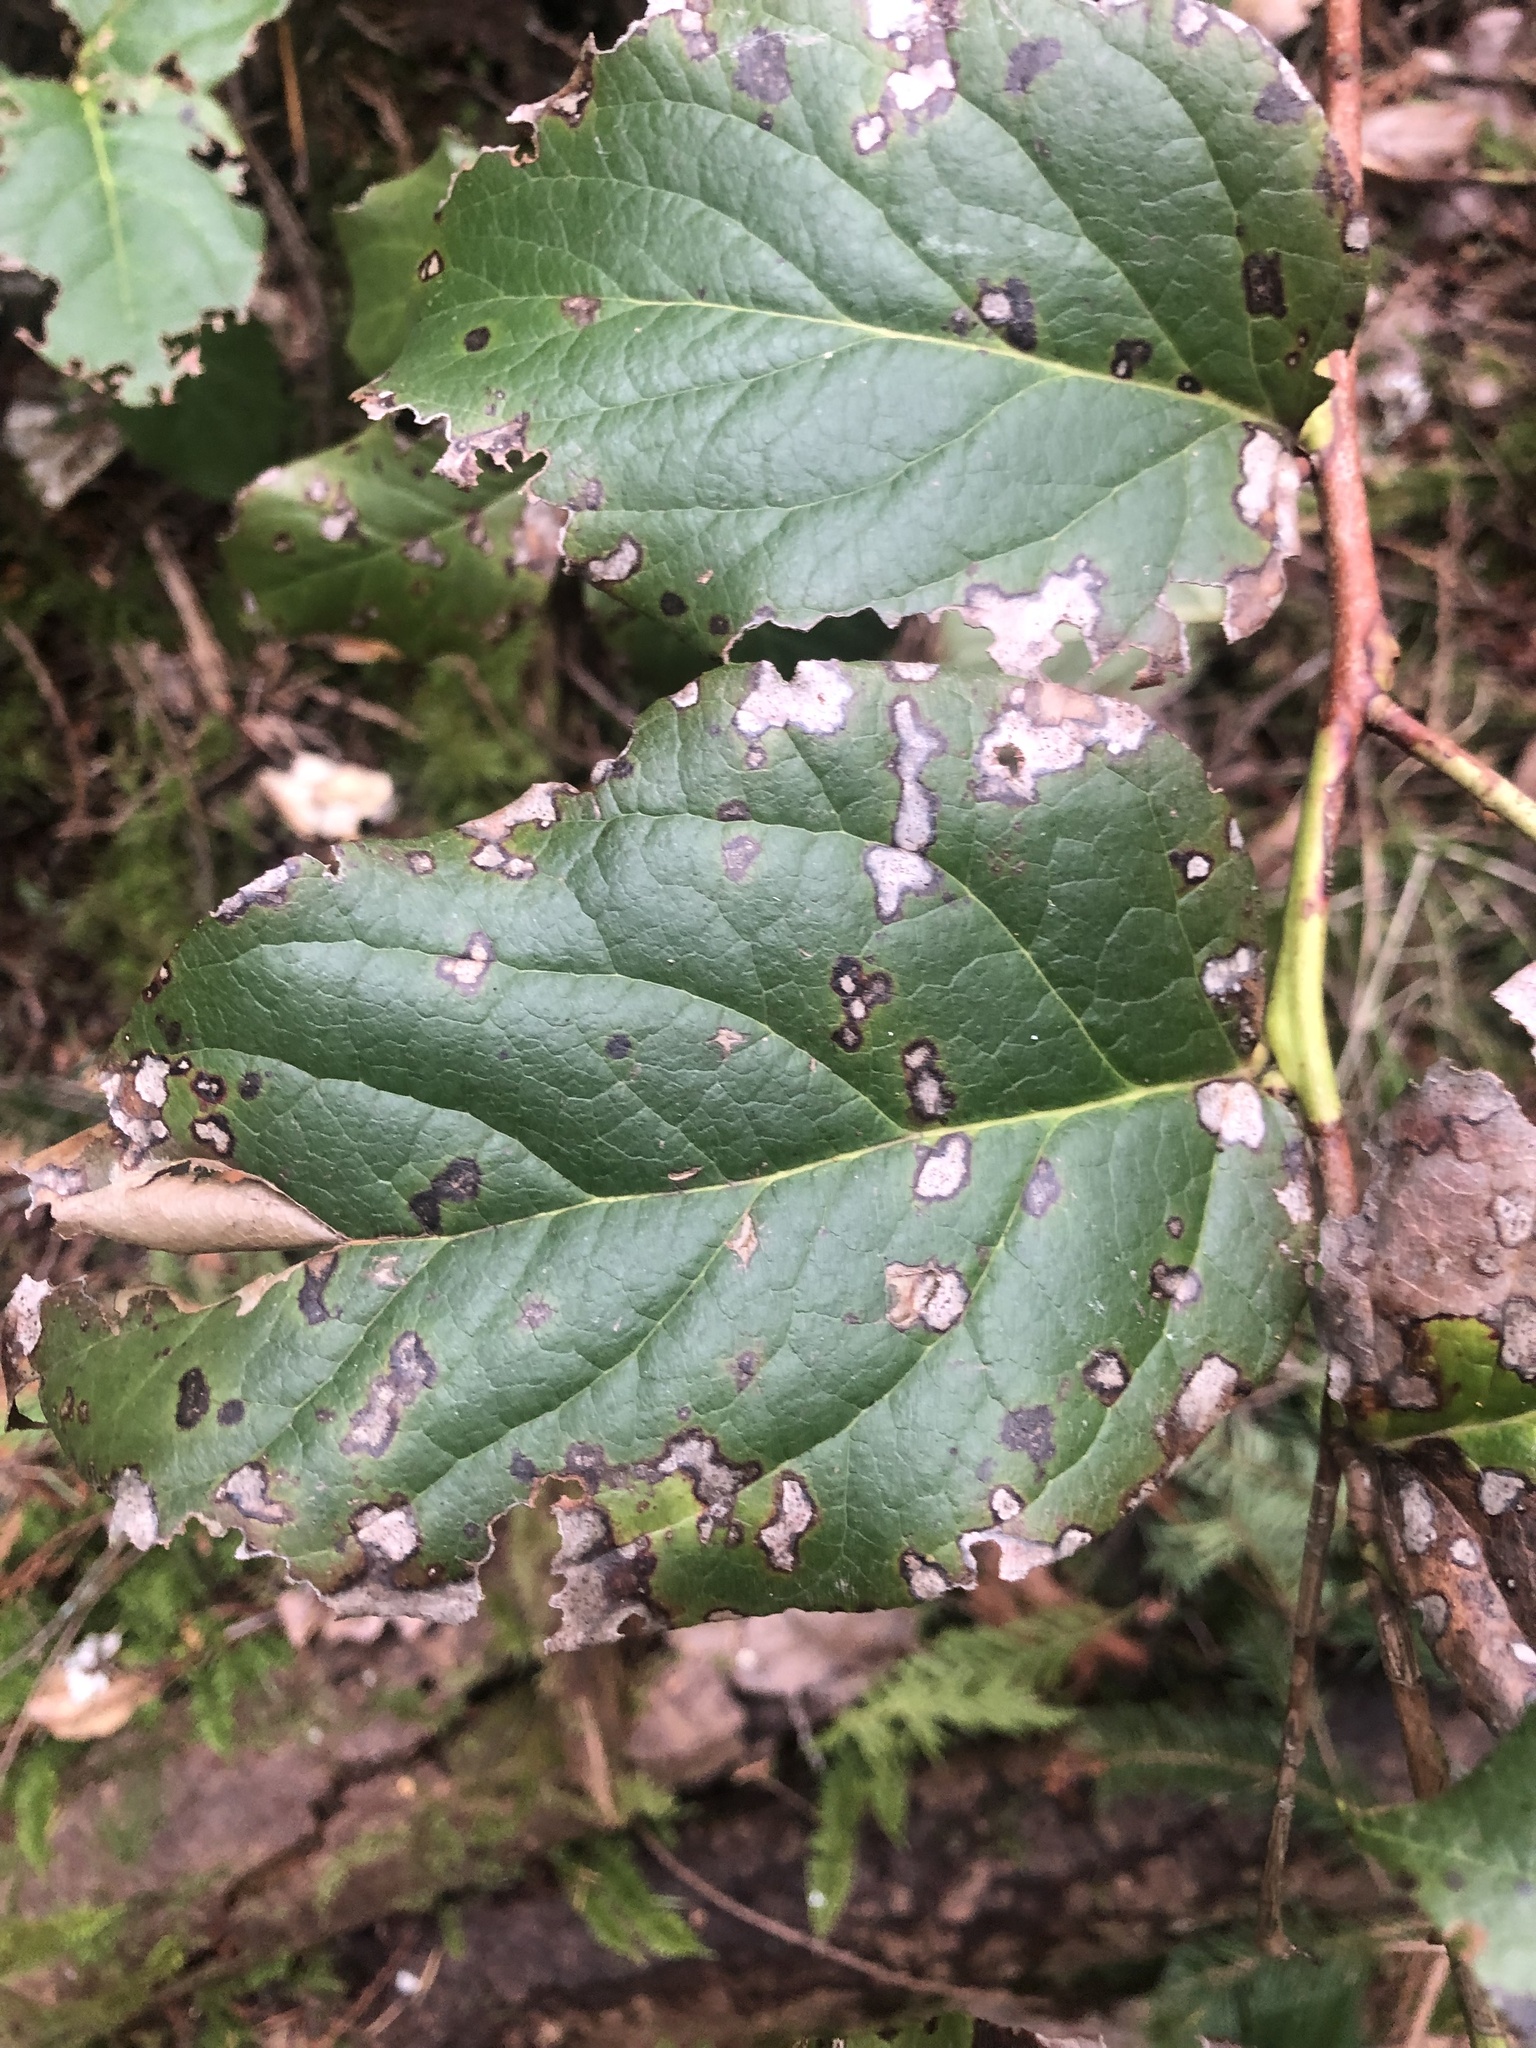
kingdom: Plantae
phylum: Tracheophyta
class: Magnoliopsida
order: Ericales
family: Ericaceae
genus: Gaultheria
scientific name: Gaultheria shallon
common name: Shallon
